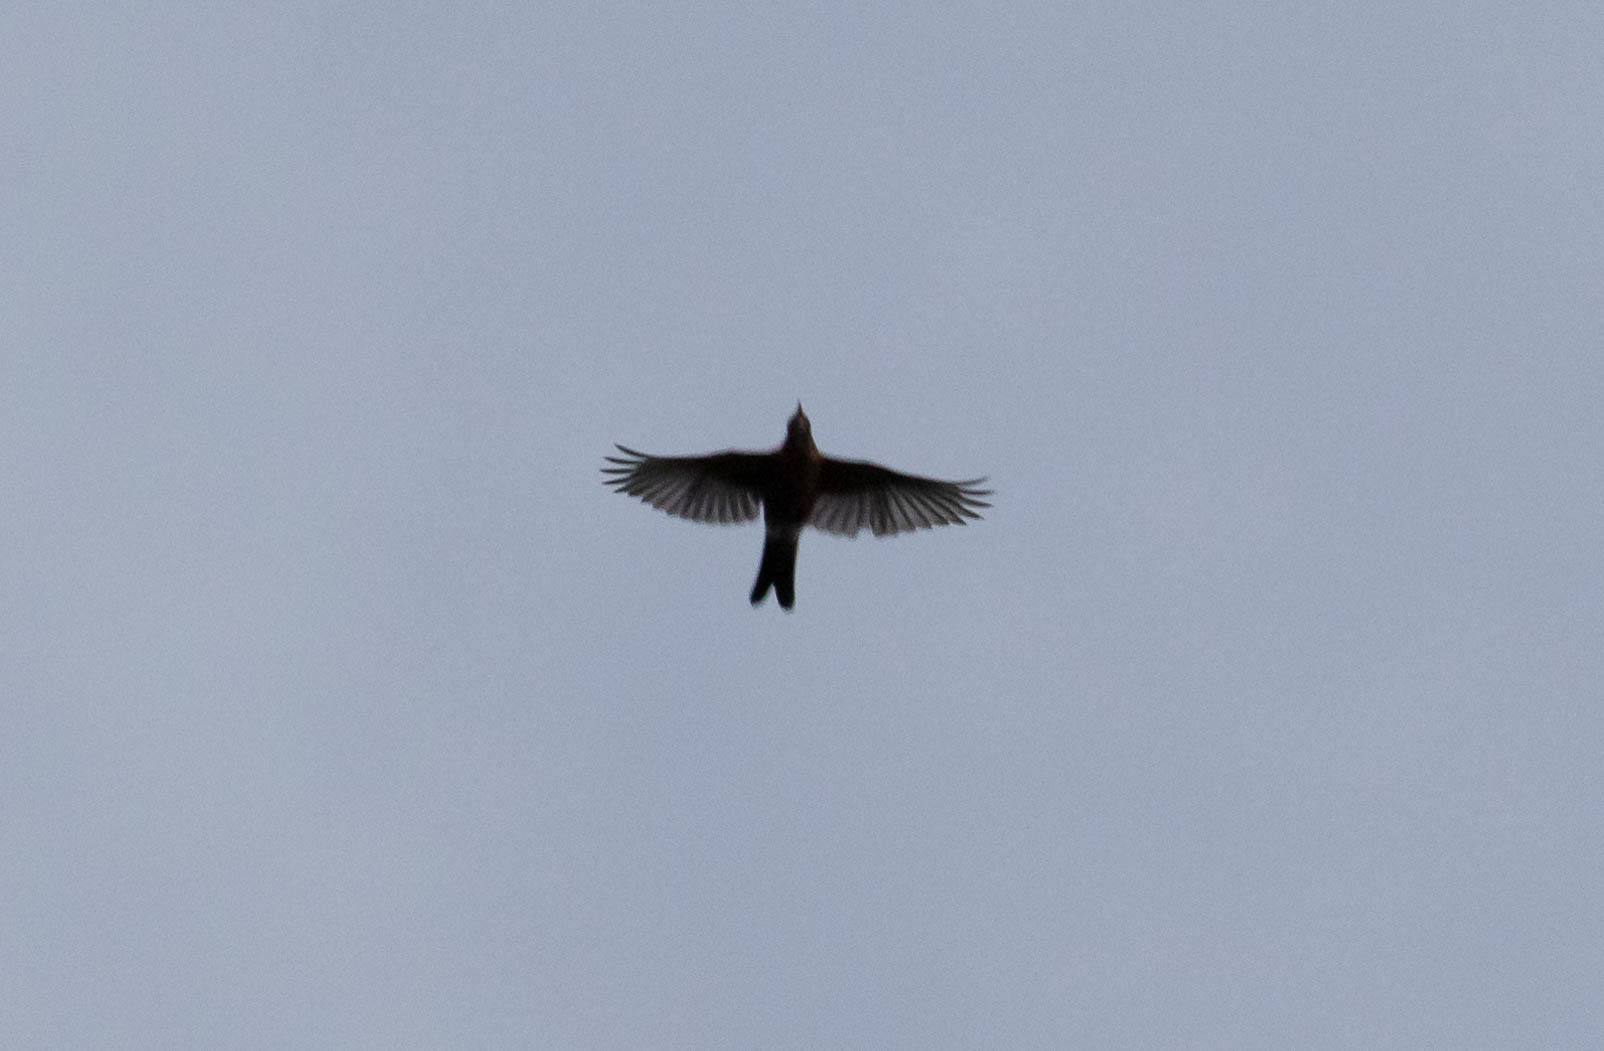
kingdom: Animalia
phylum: Chordata
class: Aves
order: Passeriformes
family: Turdidae
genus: Turdus
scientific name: Turdus migratorius
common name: American robin
